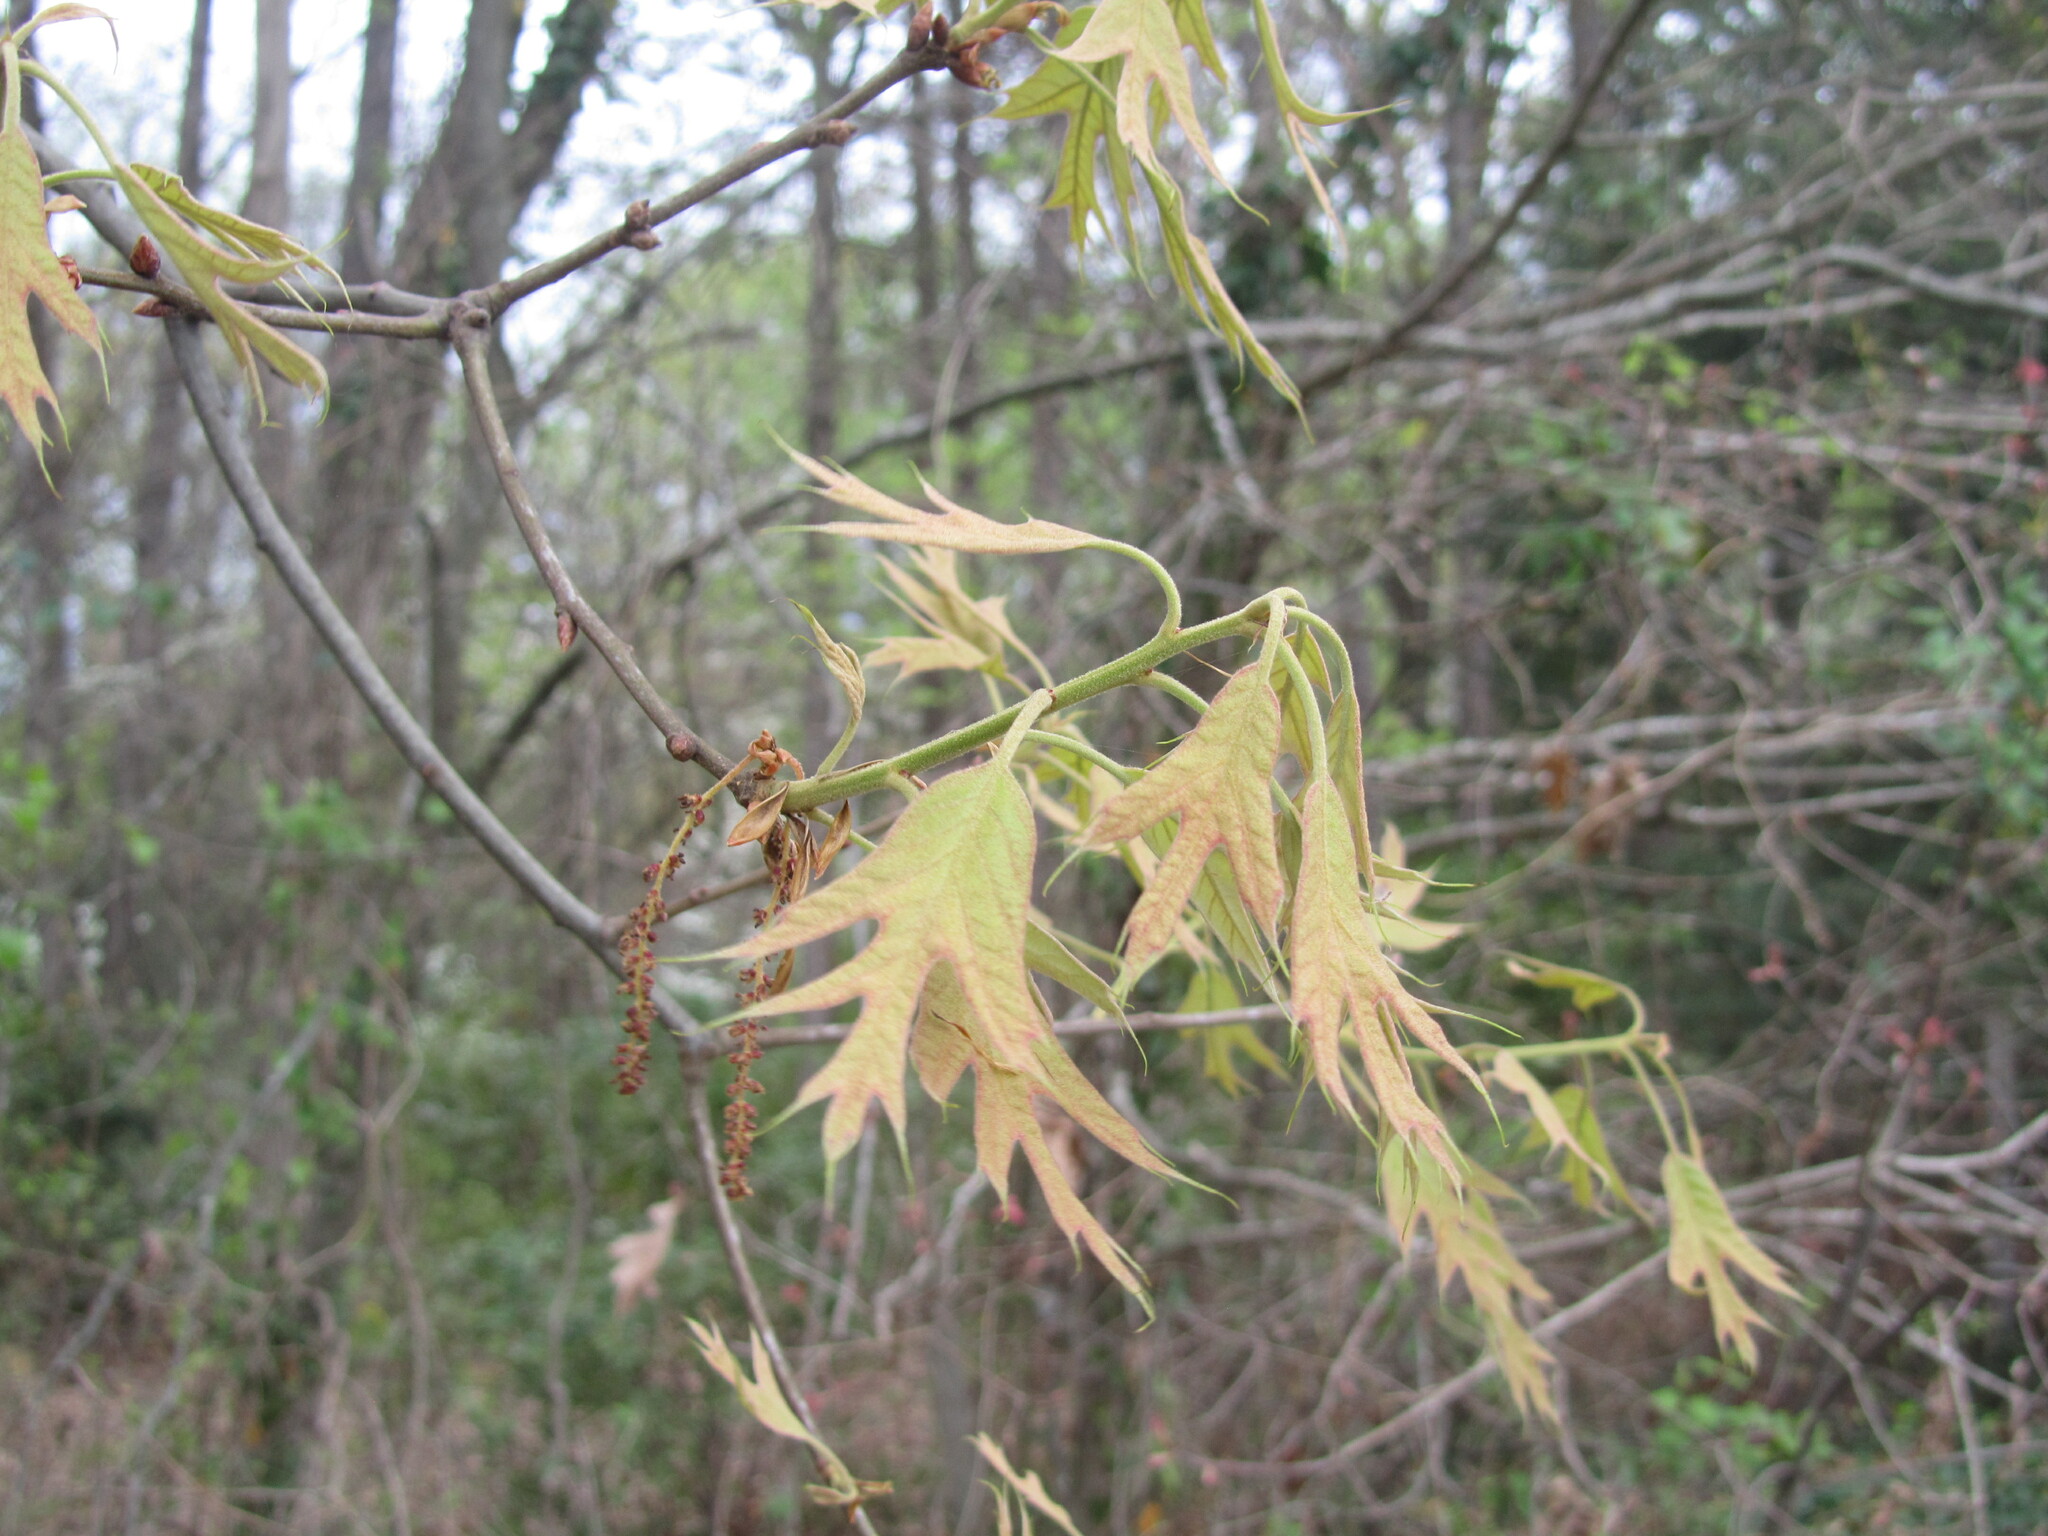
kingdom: Plantae
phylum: Tracheophyta
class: Magnoliopsida
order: Fagales
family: Fagaceae
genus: Quercus
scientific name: Quercus falcata
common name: Southern red oak
